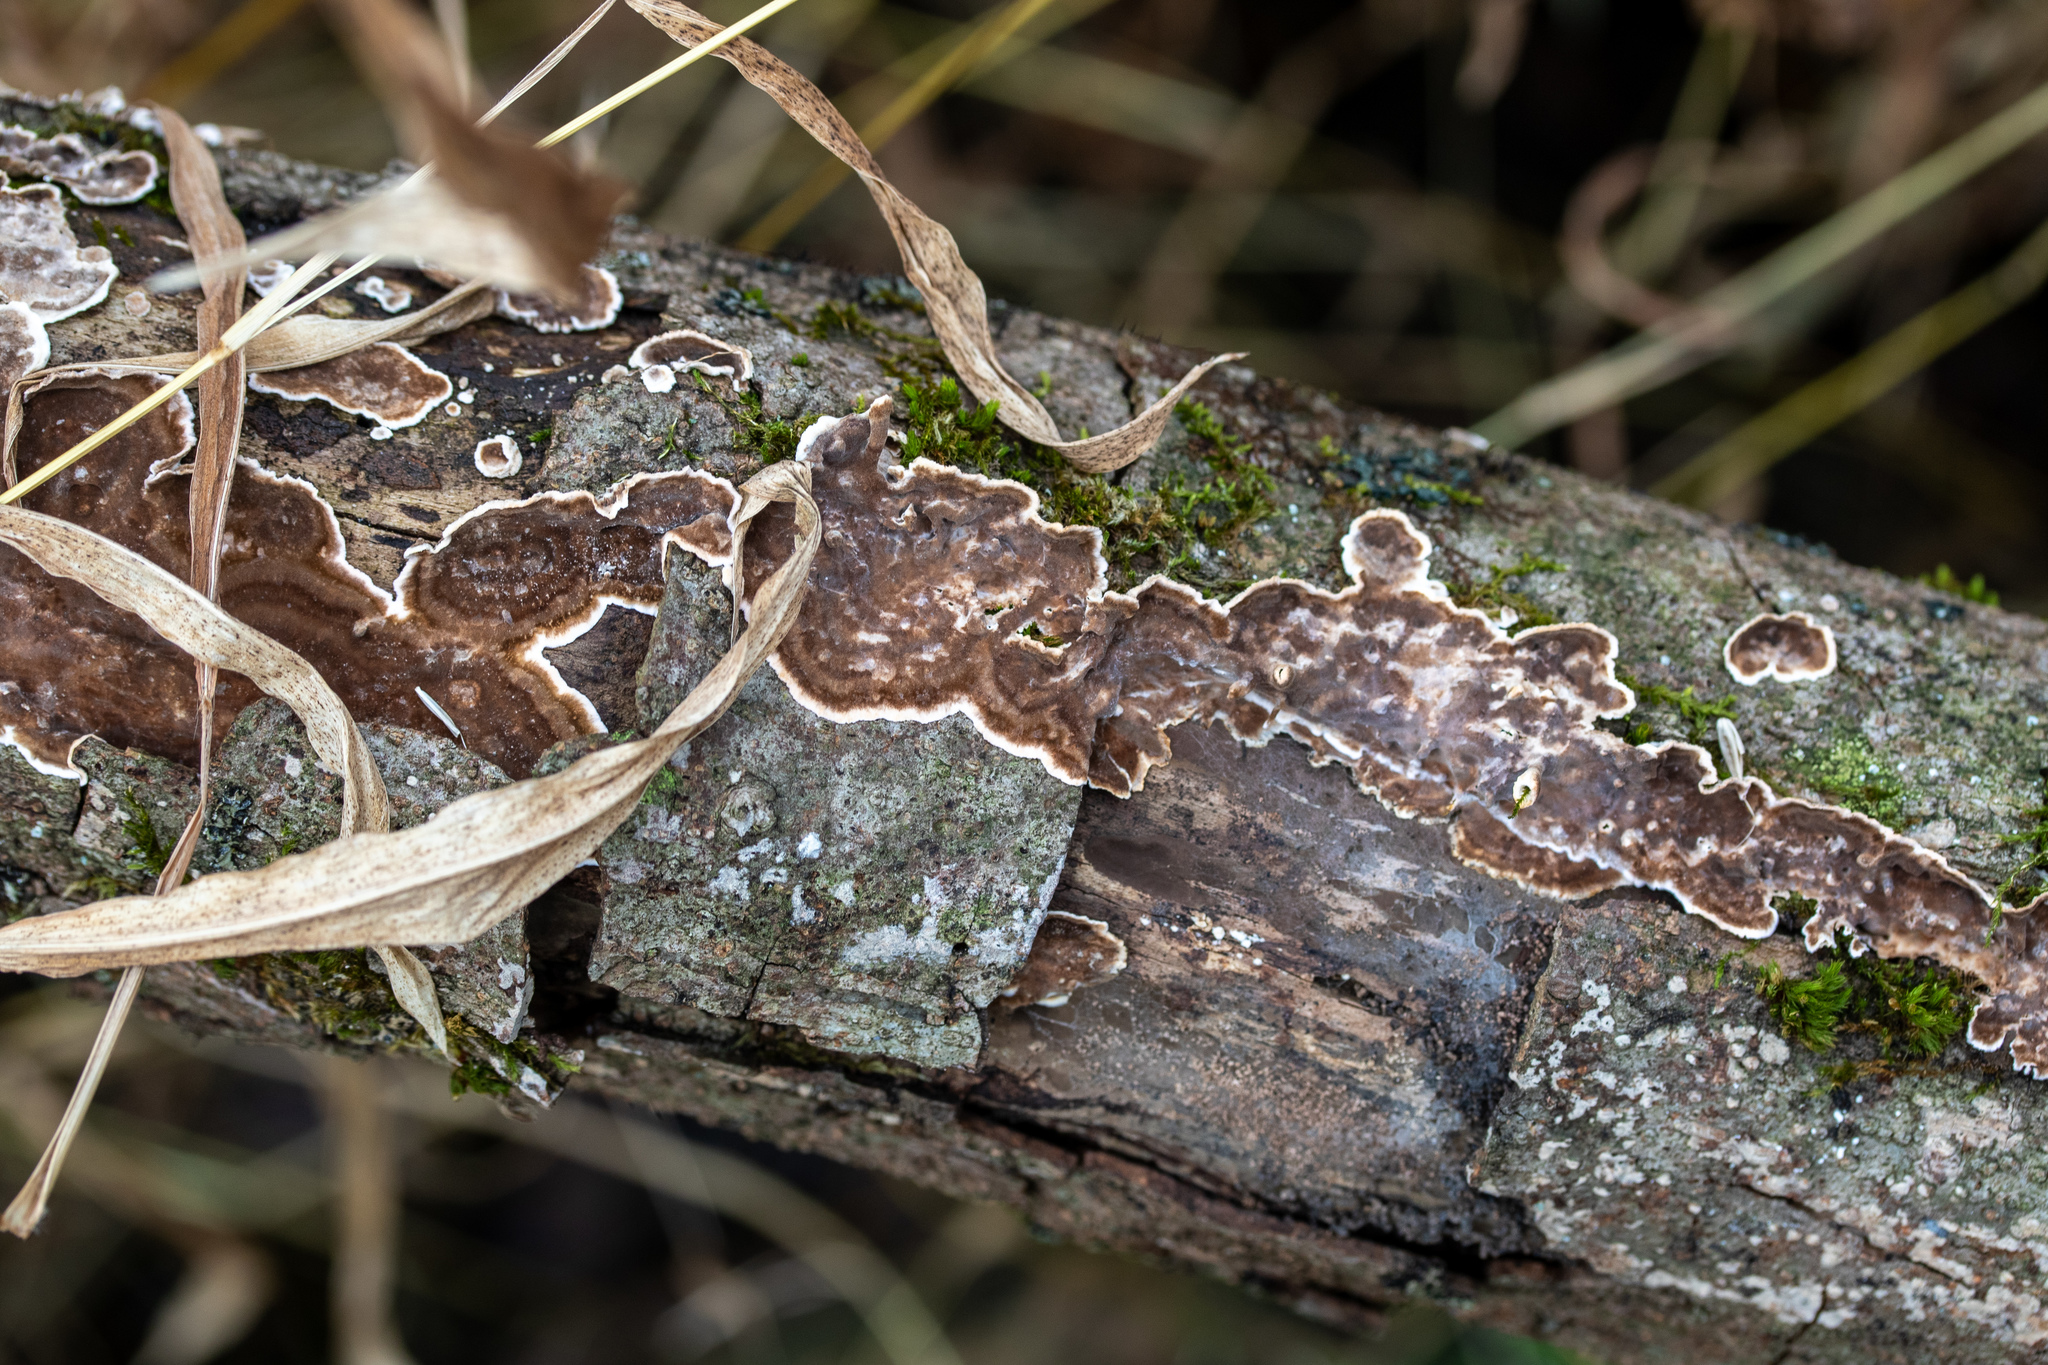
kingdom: Fungi
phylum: Basidiomycota
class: Agaricomycetes
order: Russulales
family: Peniophoraceae
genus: Peniophora
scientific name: Peniophora albobadia
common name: Giraffe spots
